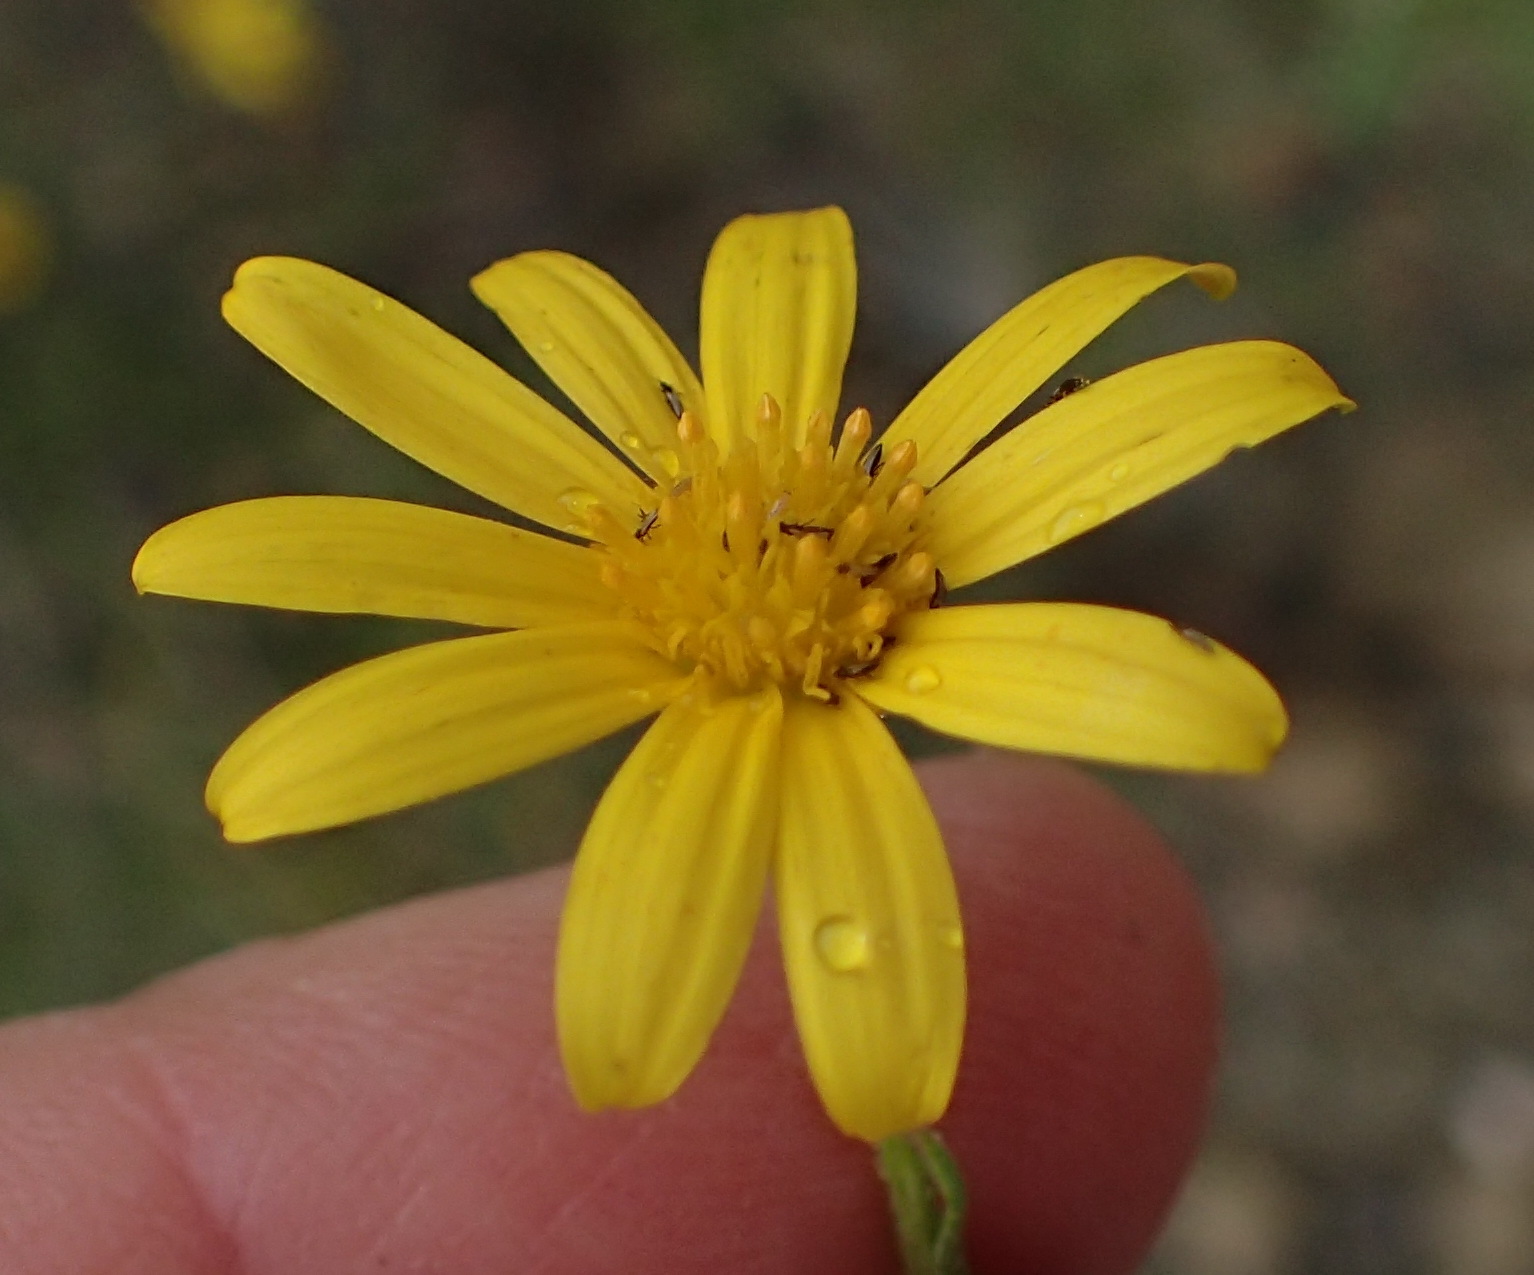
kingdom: Plantae
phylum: Tracheophyta
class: Magnoliopsida
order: Asterales
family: Asteraceae
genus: Osteospermum
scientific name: Osteospermum scariosum
